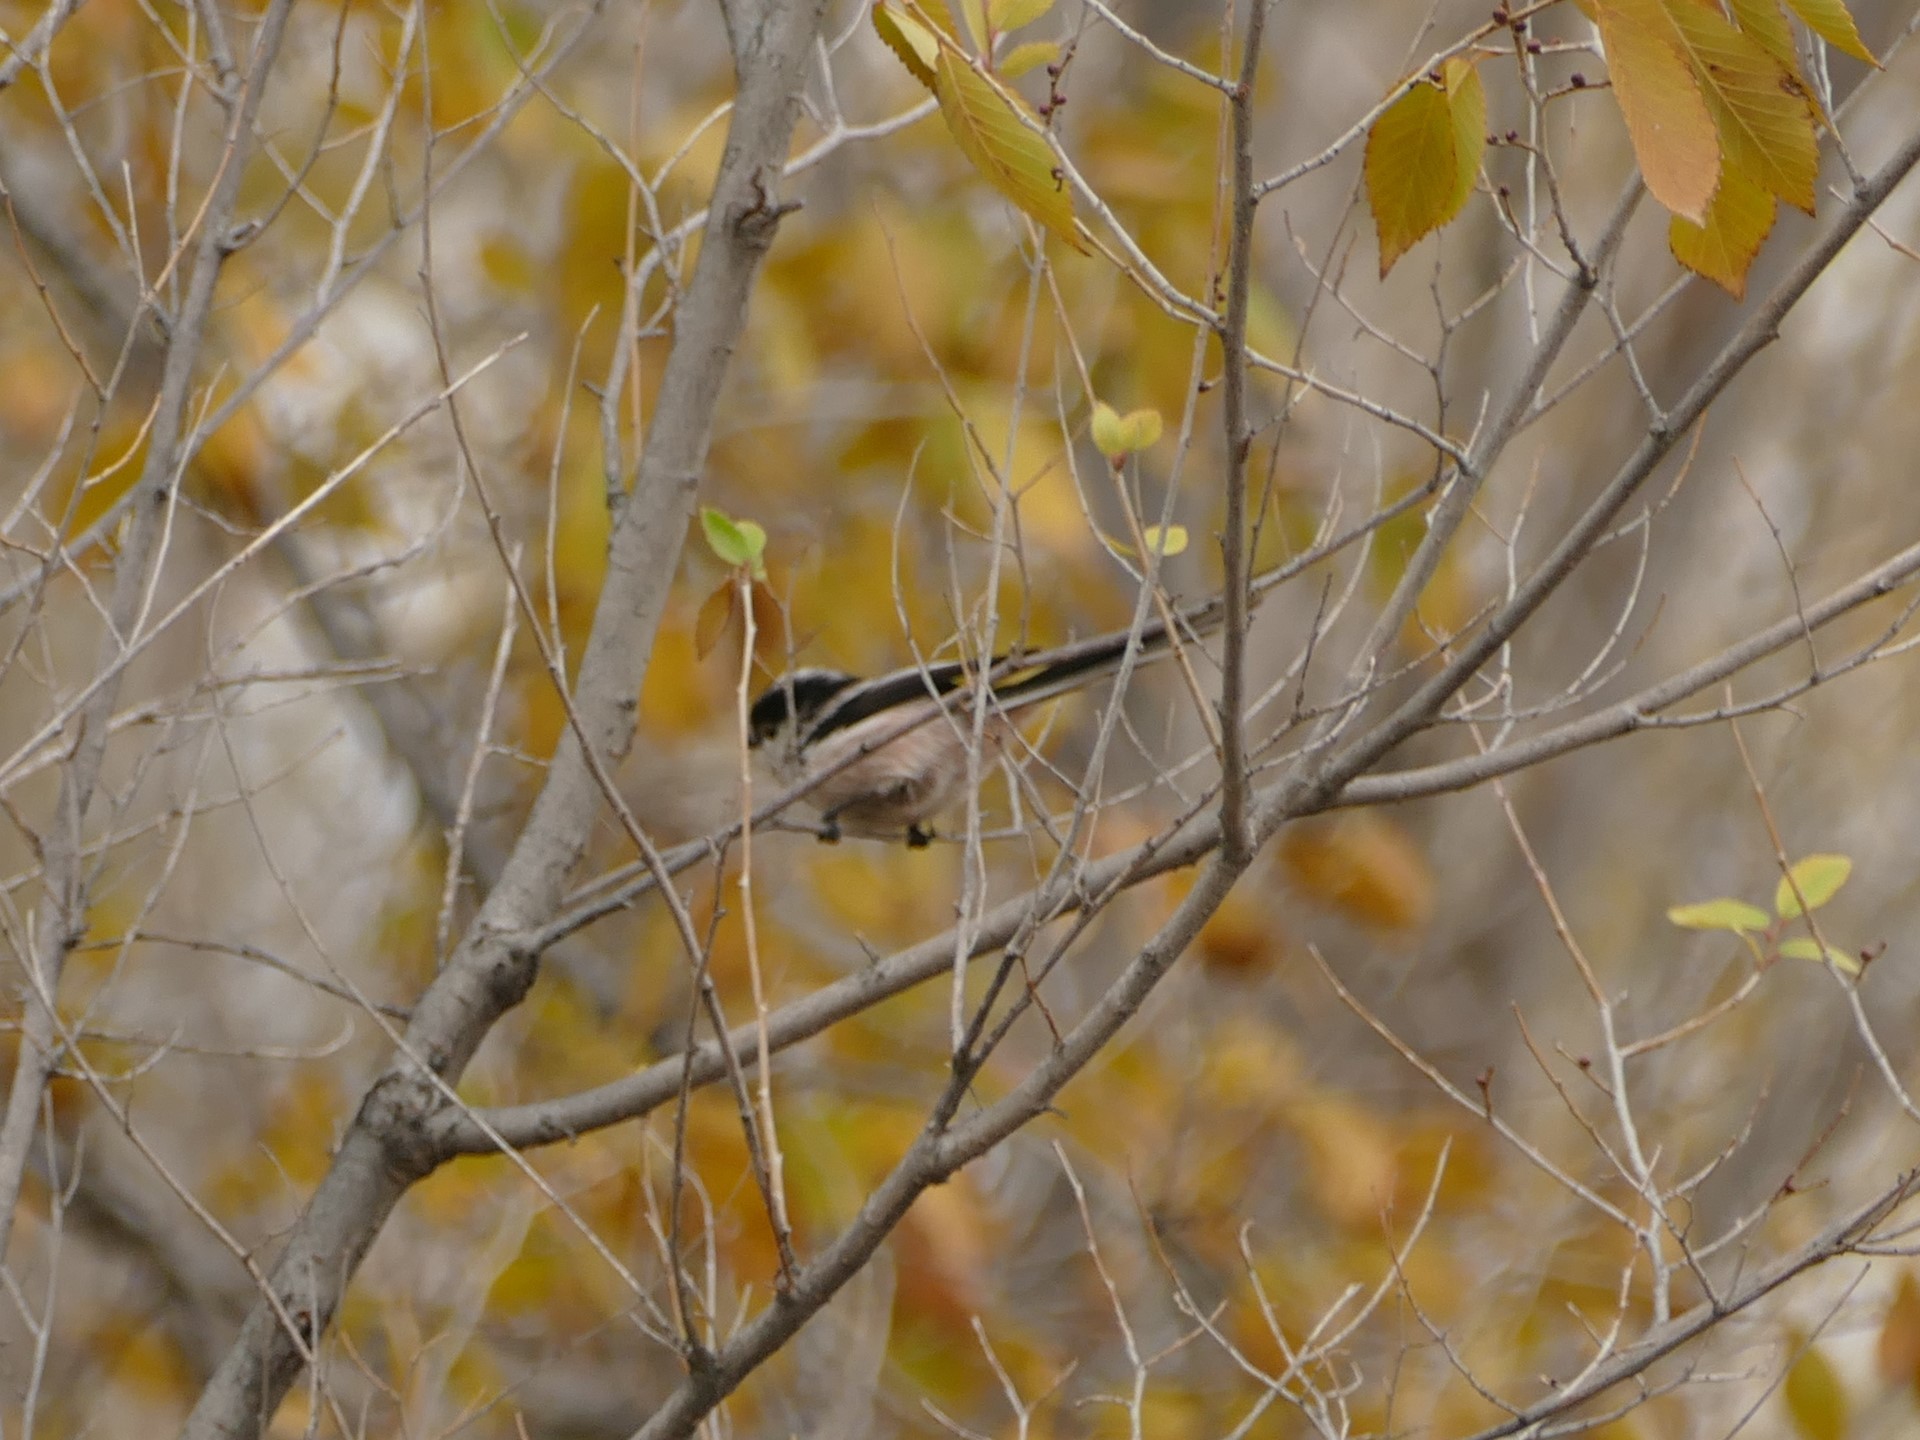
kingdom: Animalia
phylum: Chordata
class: Aves
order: Passeriformes
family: Aegithalidae
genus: Aegithalos
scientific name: Aegithalos caudatus
